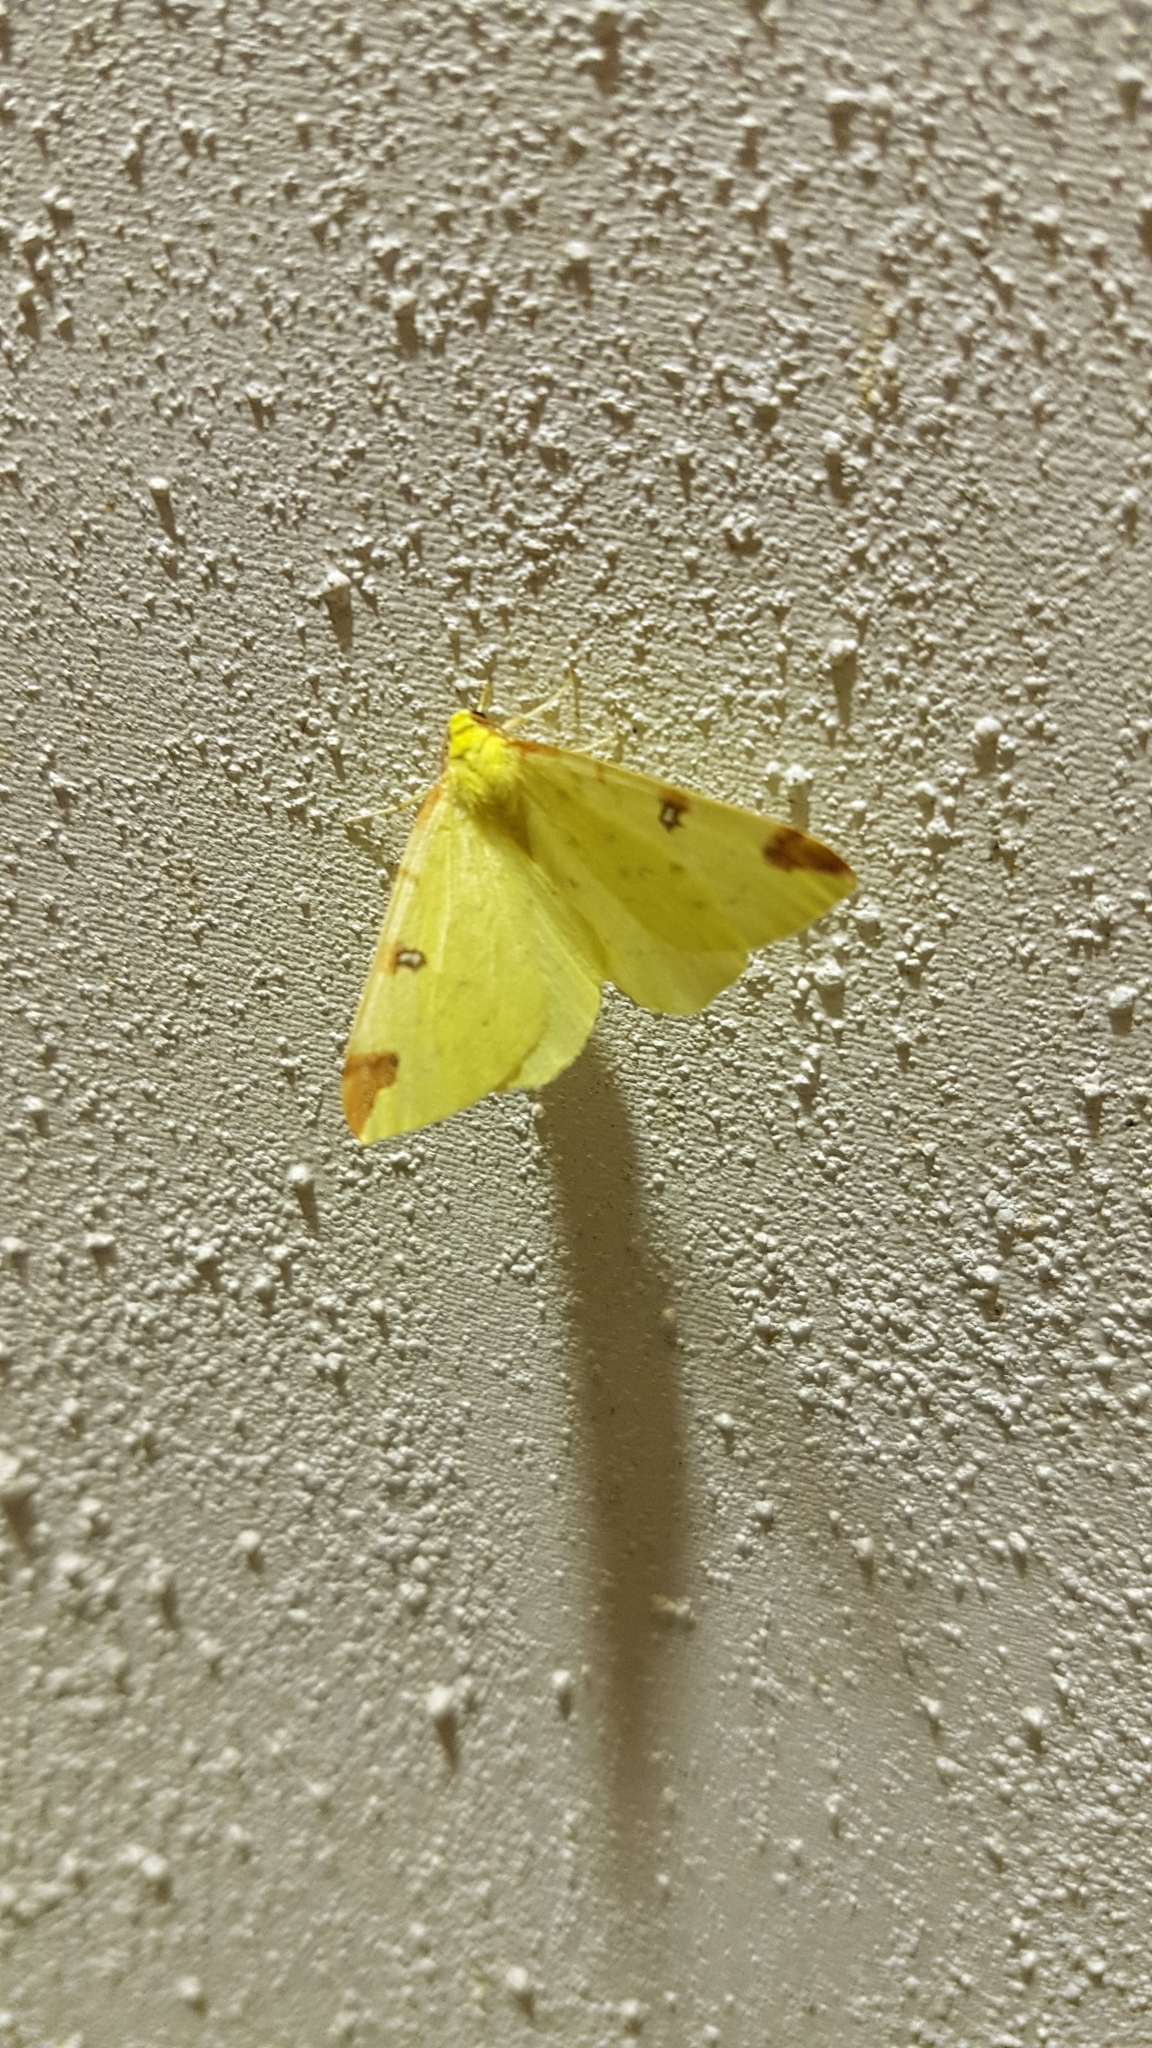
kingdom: Animalia
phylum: Arthropoda
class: Insecta
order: Lepidoptera
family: Geometridae
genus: Opisthograptis
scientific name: Opisthograptis luteolata
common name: Brimstone moth
